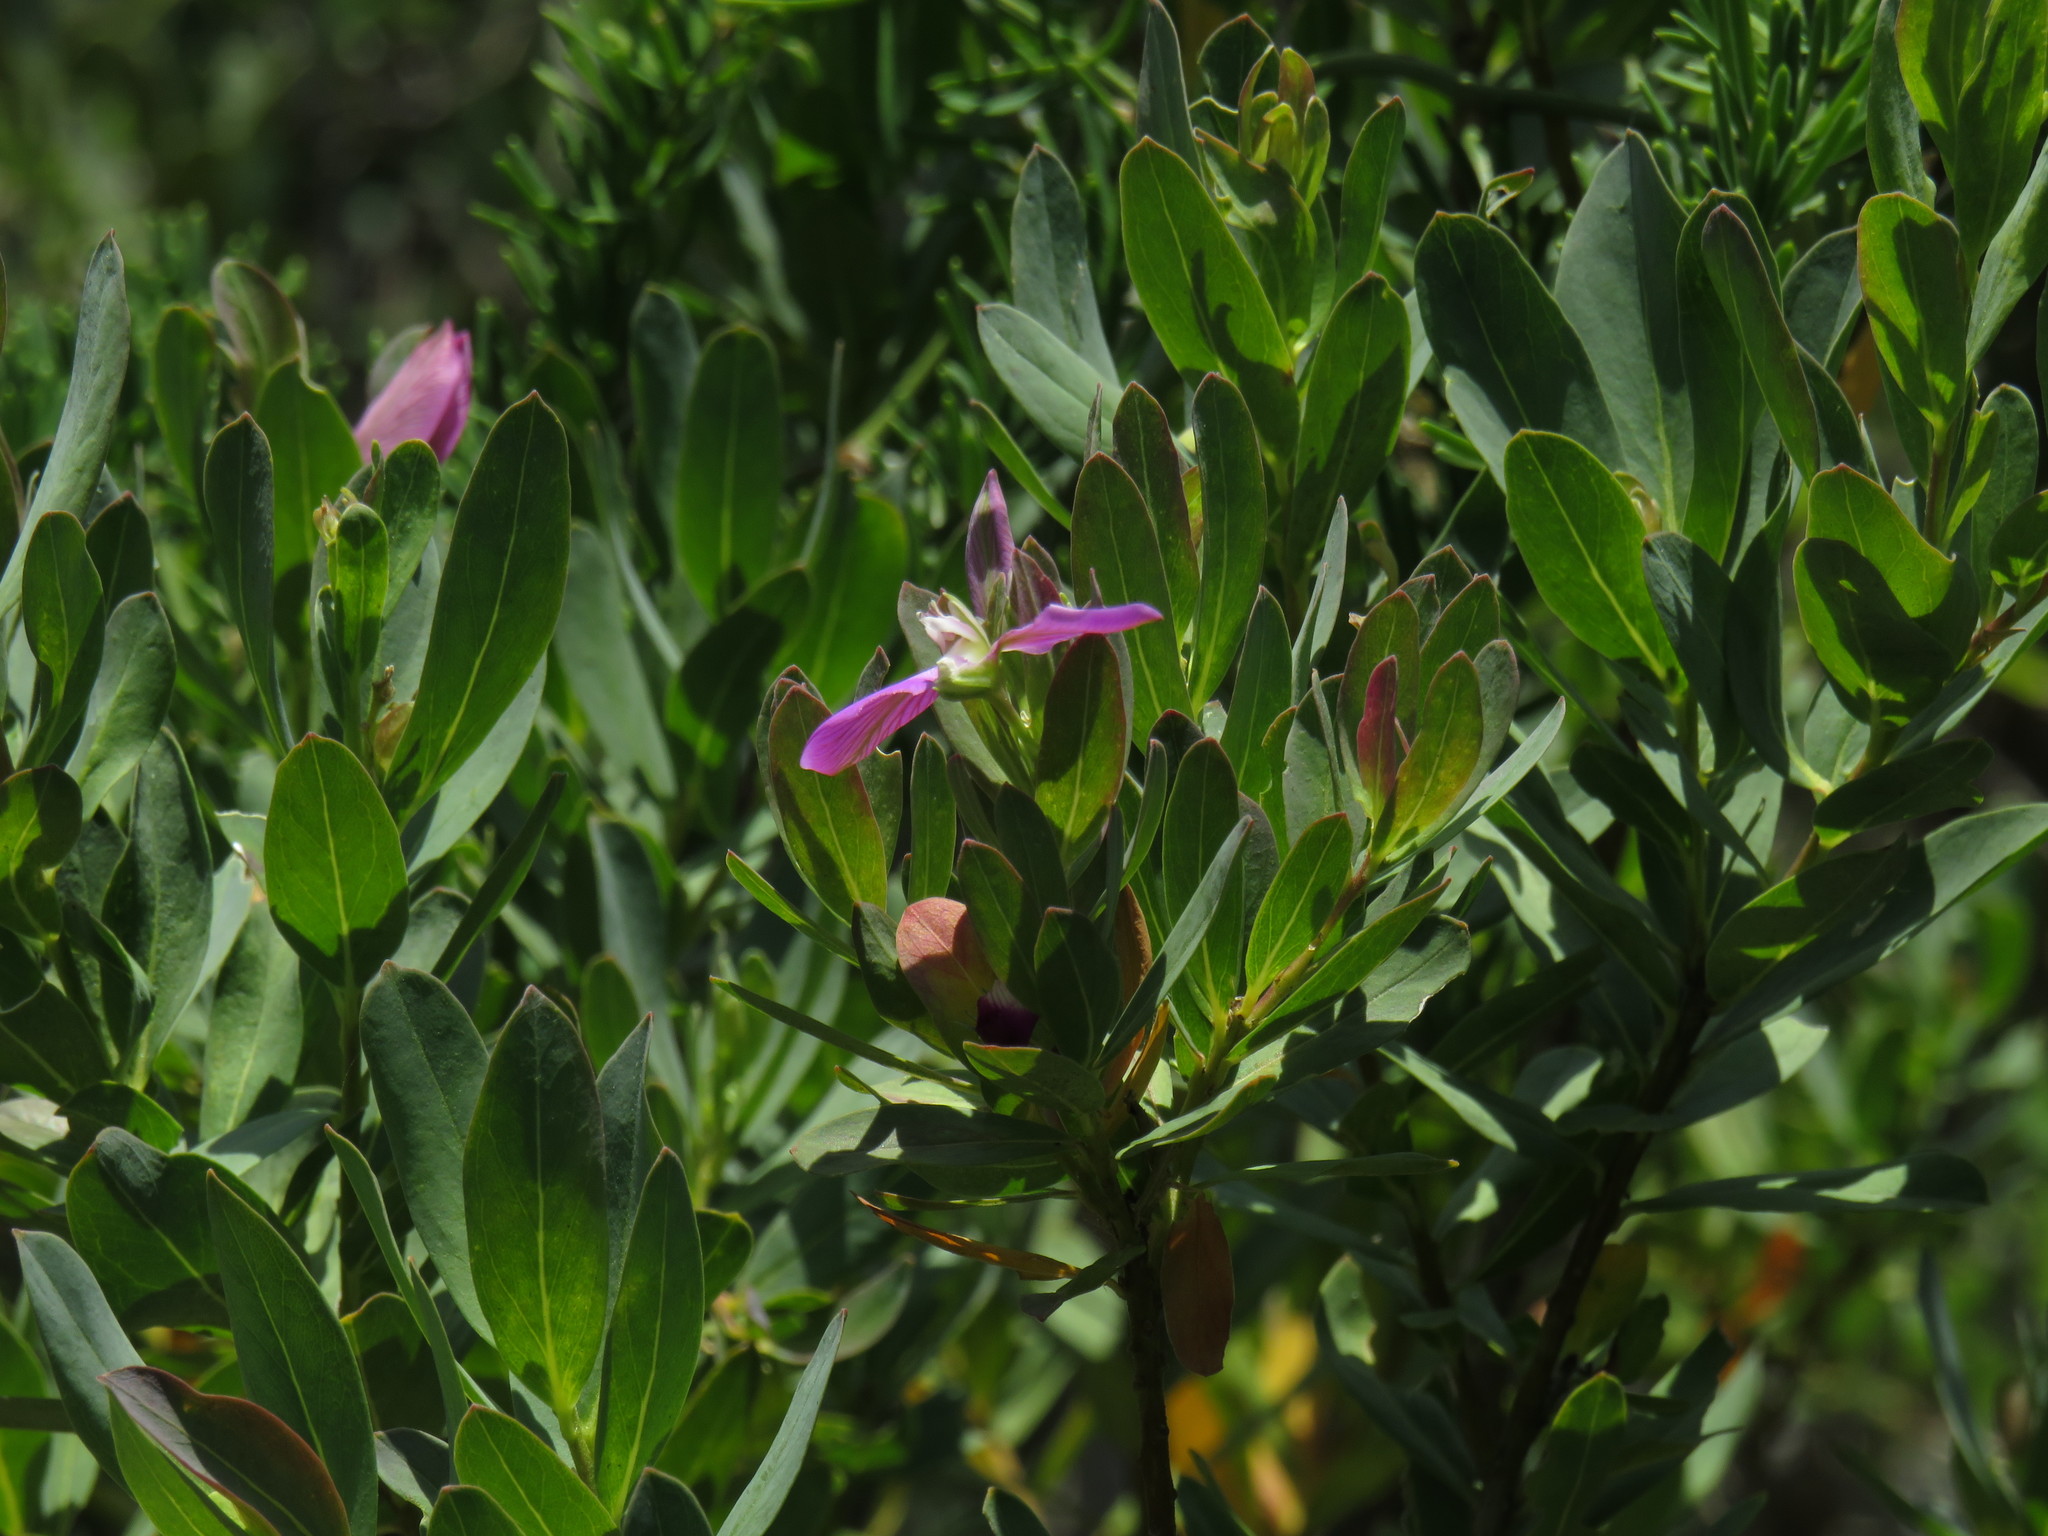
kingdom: Plantae
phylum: Tracheophyta
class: Magnoliopsida
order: Fabales
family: Polygalaceae
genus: Polygala
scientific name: Polygala myrtifolia
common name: Myrtle-leaf milkwort
